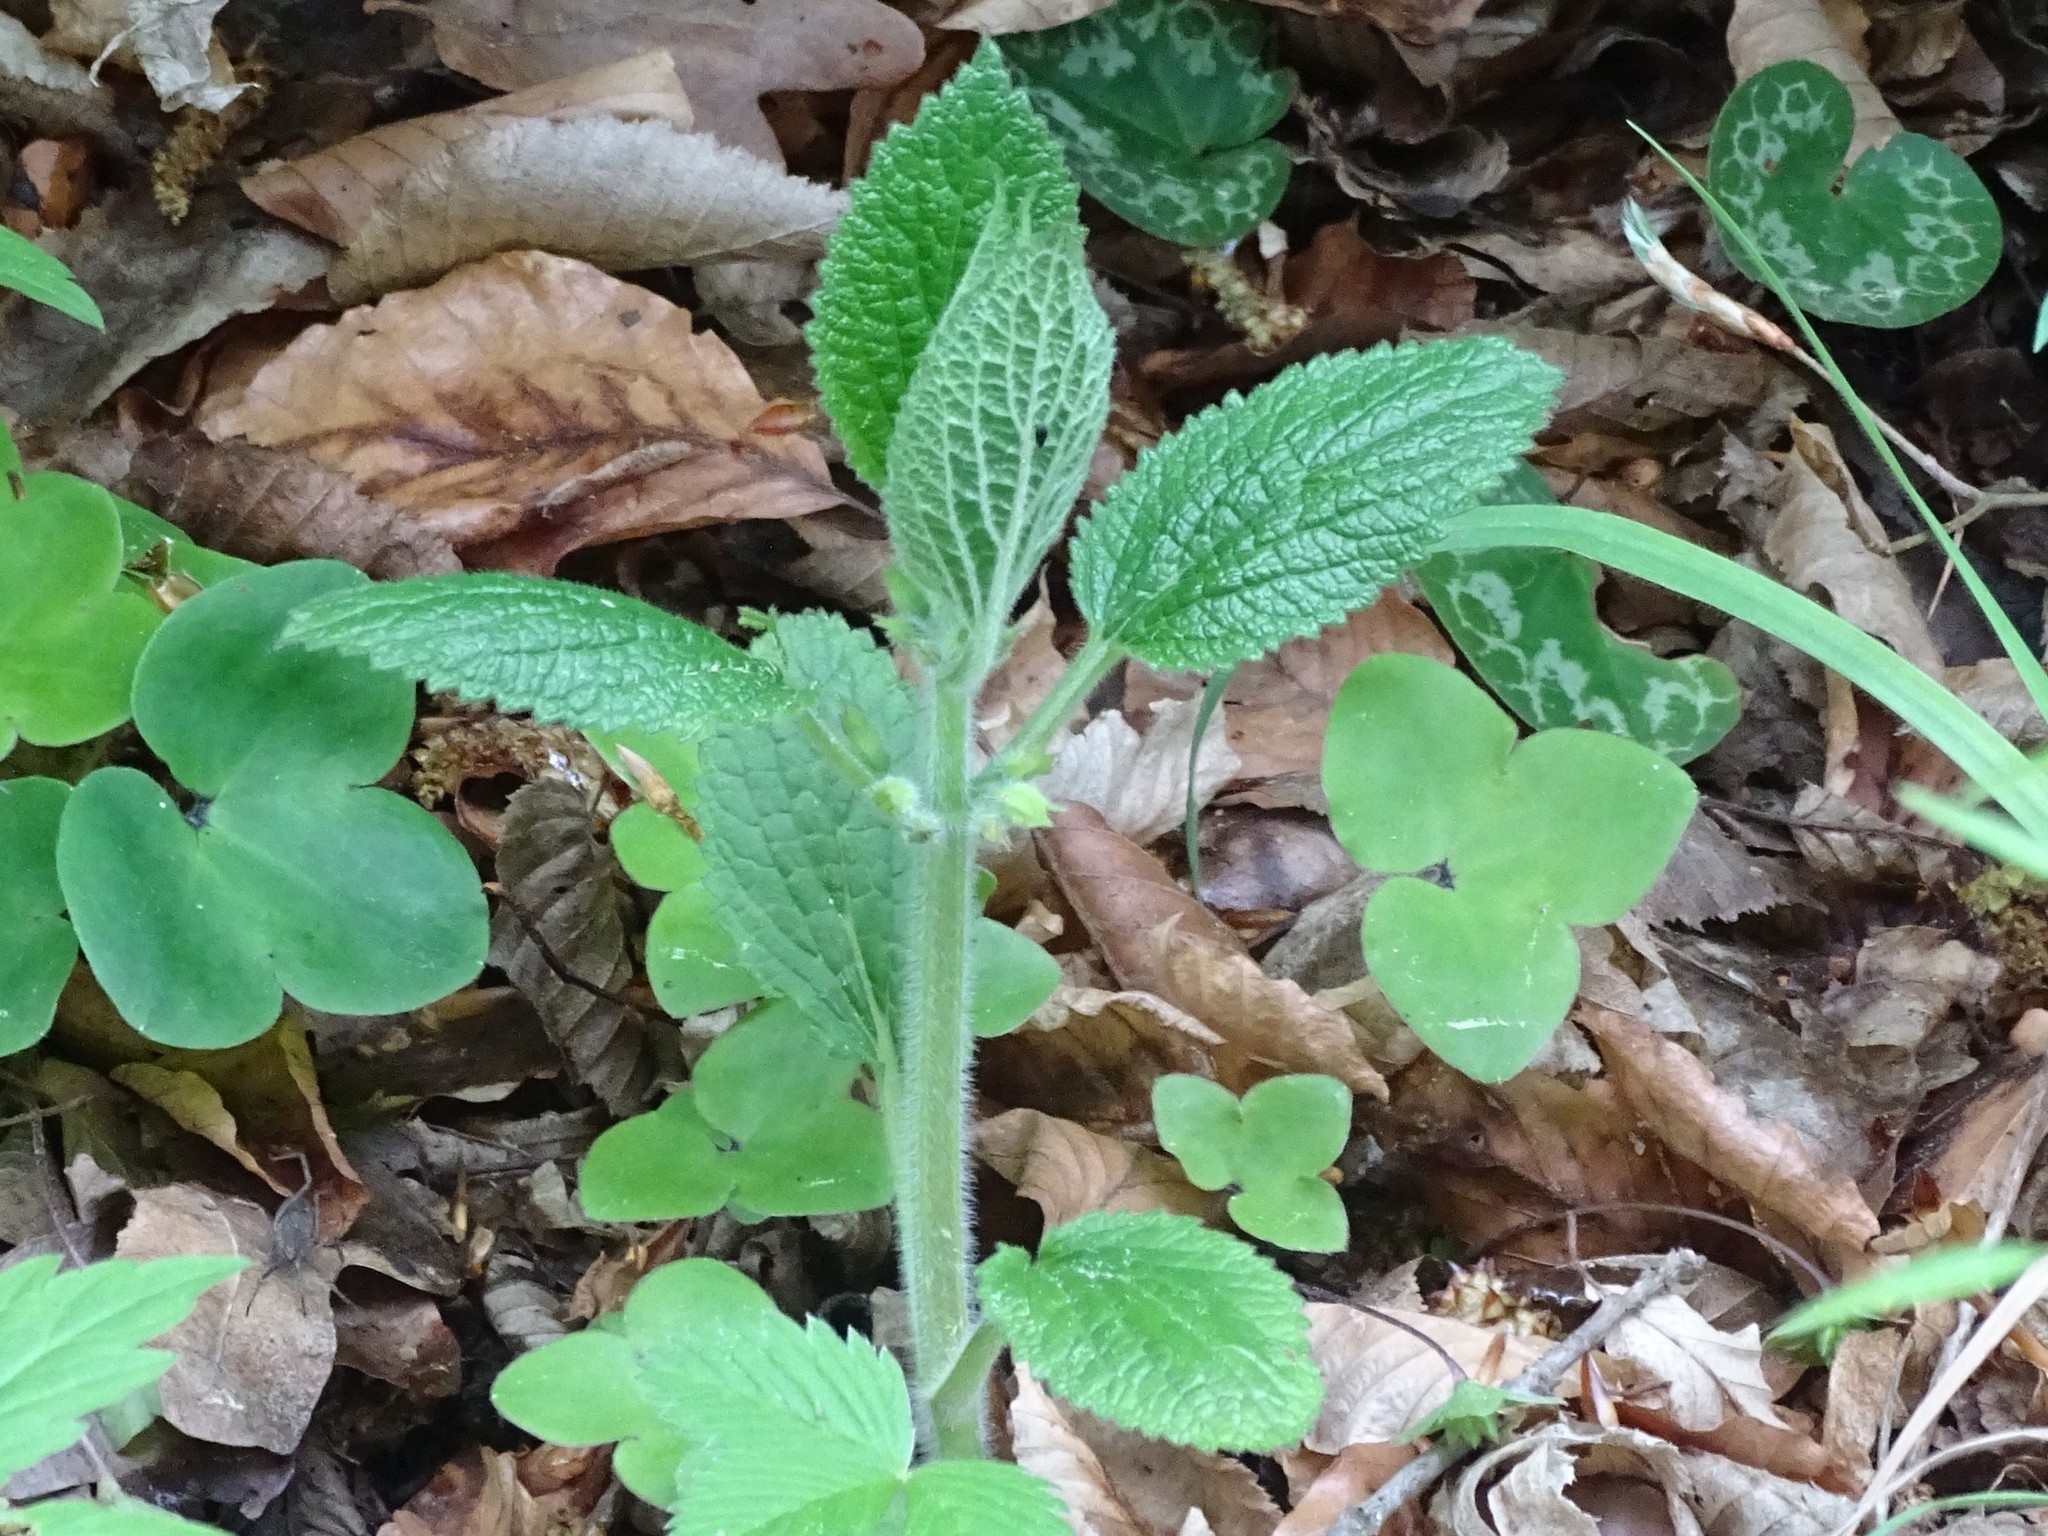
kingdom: Plantae
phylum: Tracheophyta
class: Magnoliopsida
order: Lamiales
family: Lamiaceae
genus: Melittis
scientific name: Melittis melissophyllum
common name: Bastard balm
